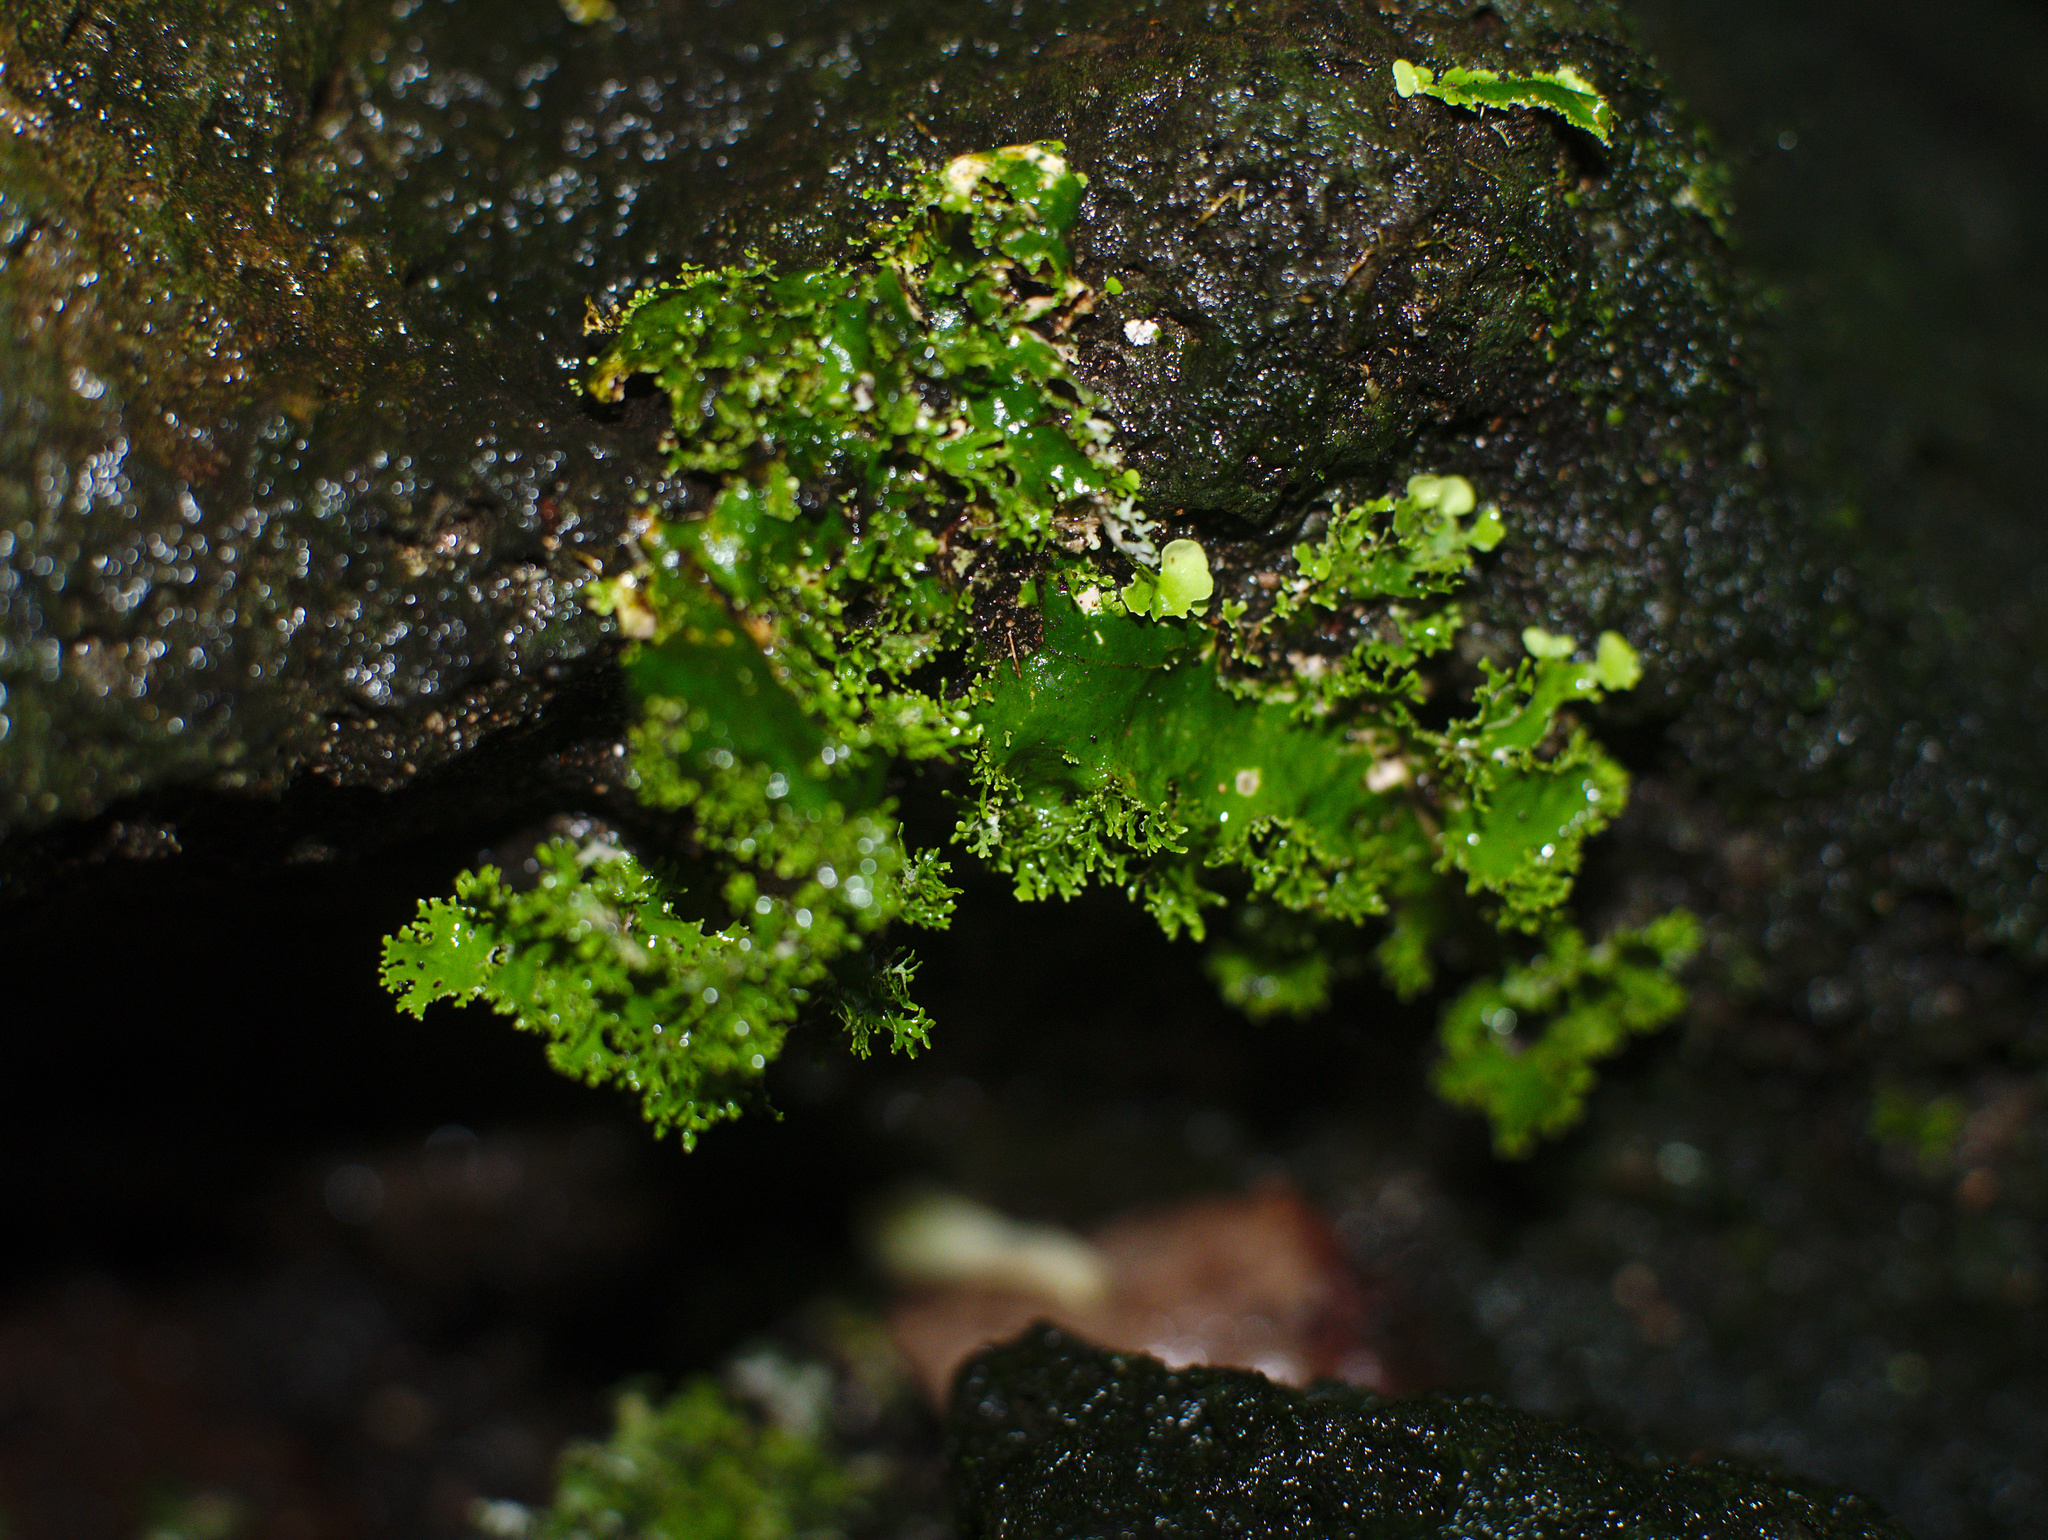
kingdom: Fungi
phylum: Ascomycota
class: Lecanoromycetes
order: Peltigerales
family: Lobariaceae
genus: Pseudocyphellaria
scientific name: Pseudocyphellaria multifida
